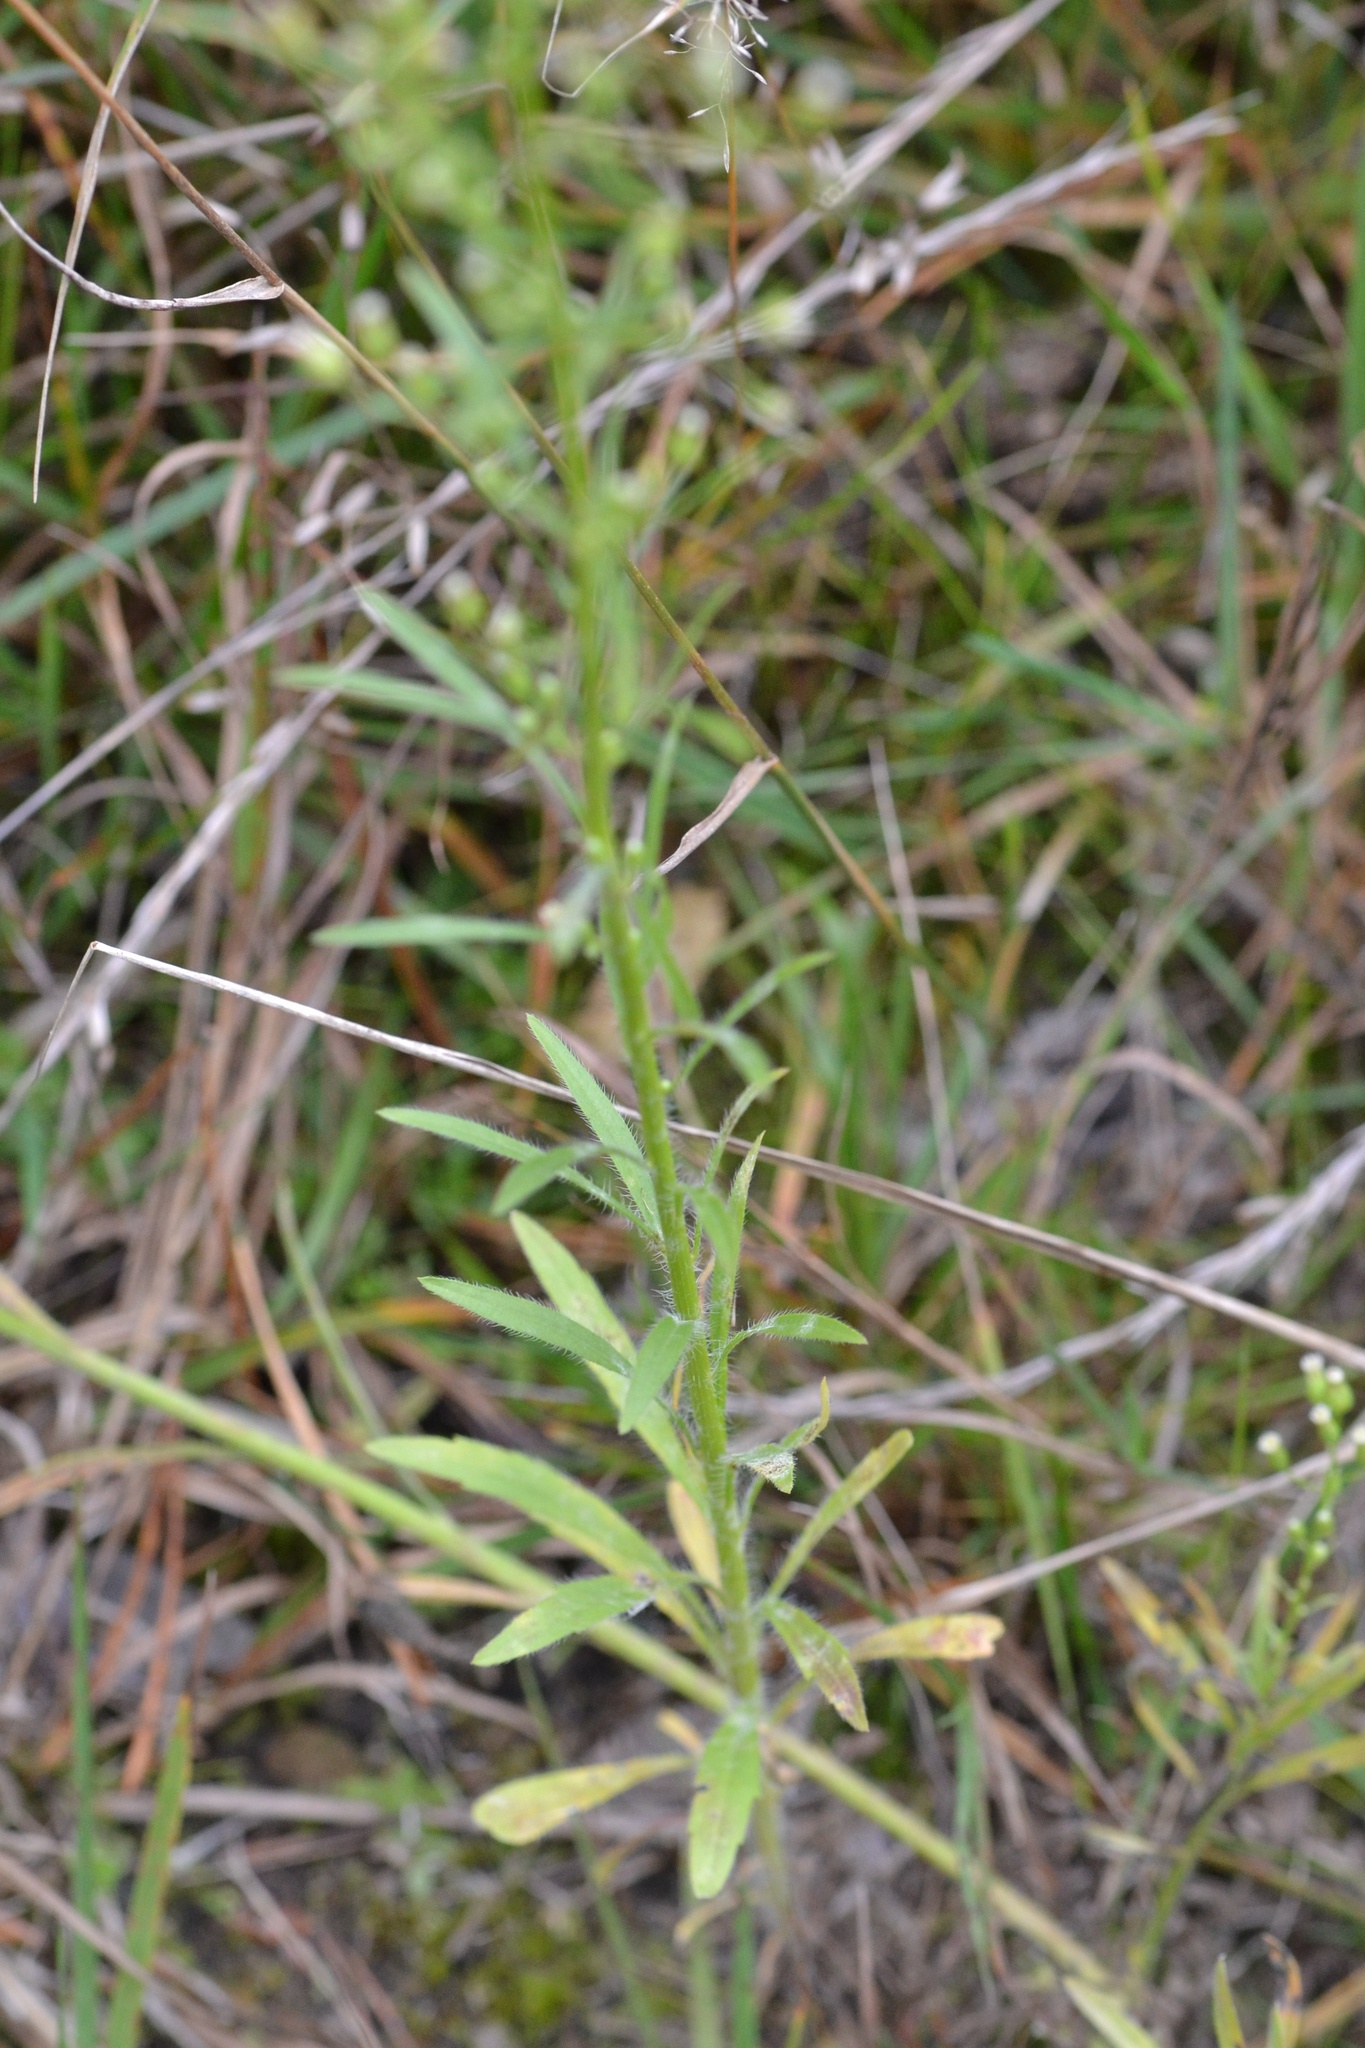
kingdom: Plantae
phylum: Tracheophyta
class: Magnoliopsida
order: Asterales
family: Asteraceae
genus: Erigeron
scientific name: Erigeron canadensis
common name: Canadian fleabane
